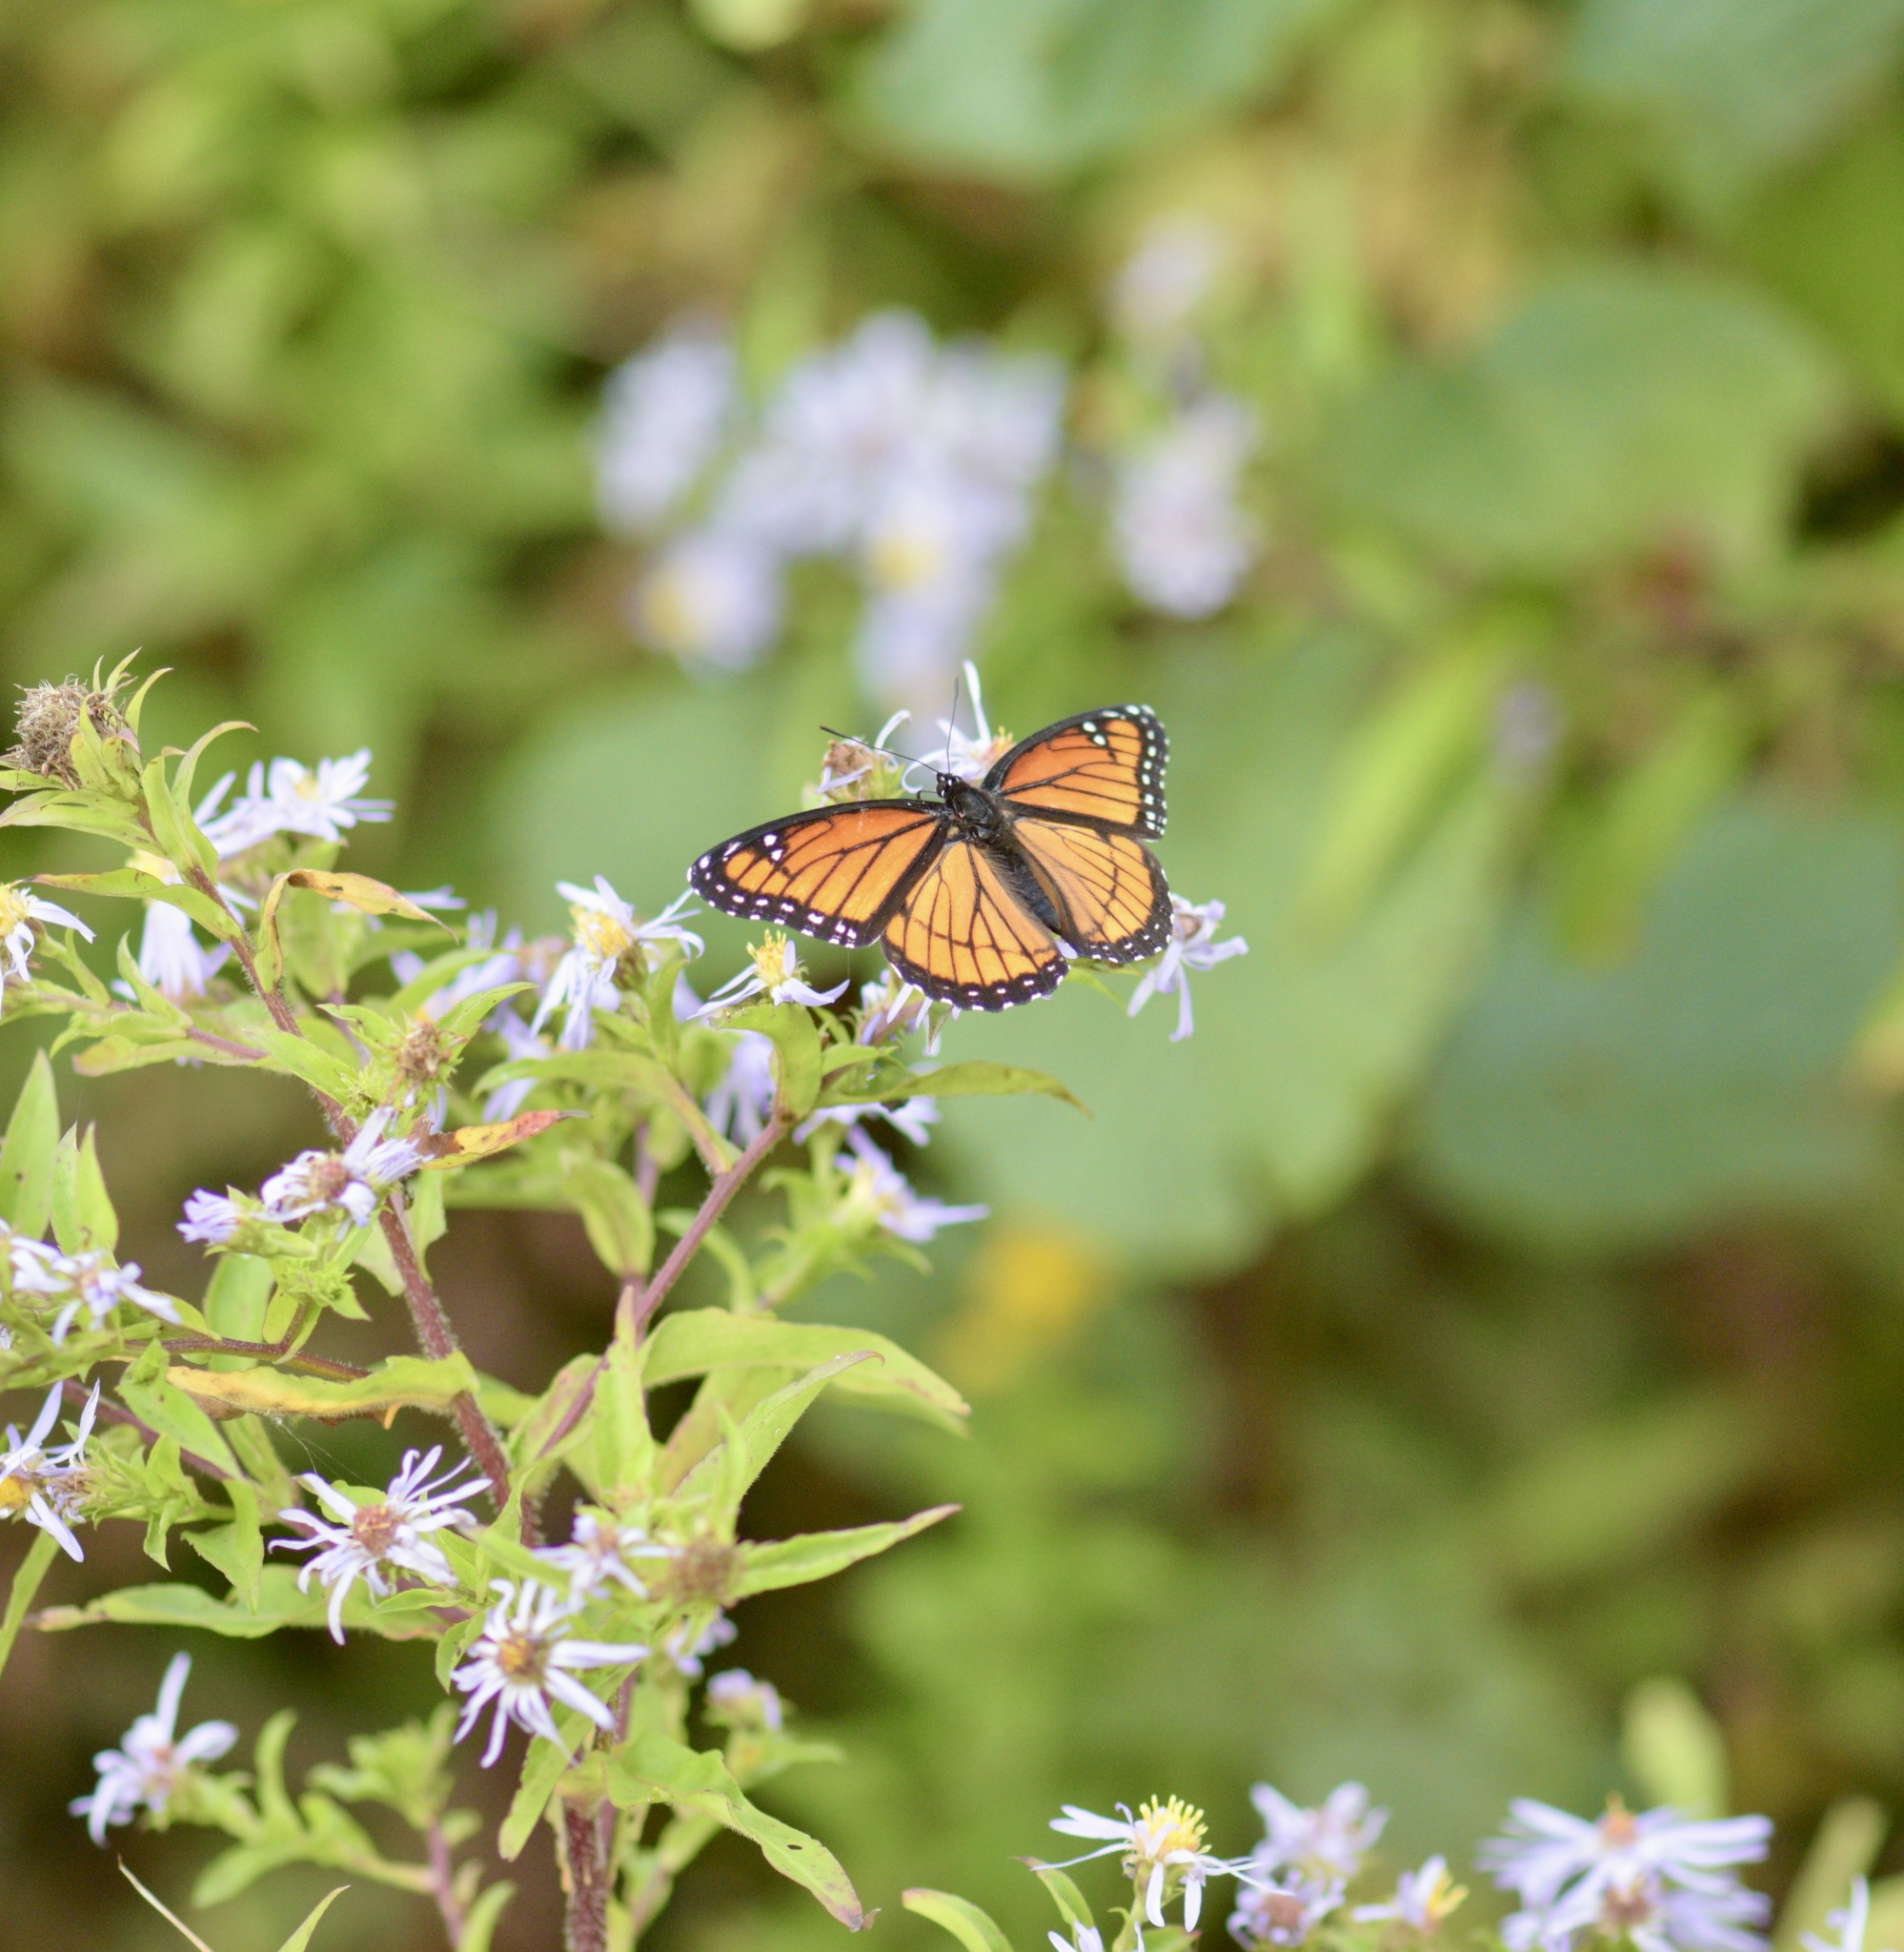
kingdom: Animalia
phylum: Arthropoda
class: Insecta
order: Lepidoptera
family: Nymphalidae
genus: Limenitis
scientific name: Limenitis archippus
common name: Viceroy
